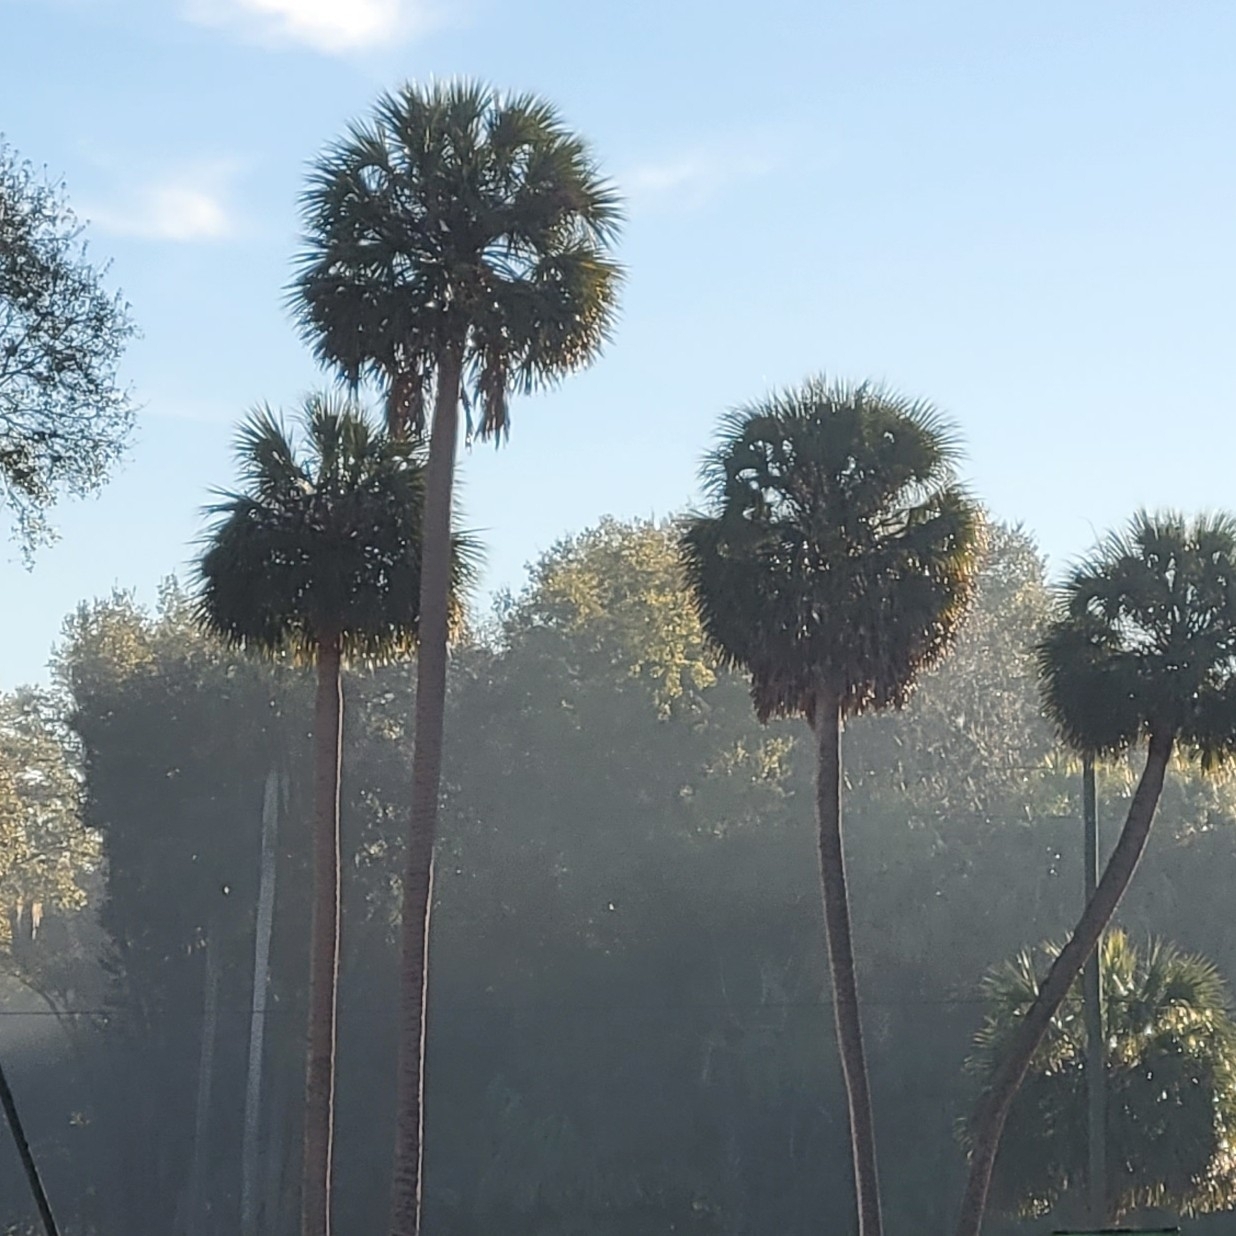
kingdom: Plantae
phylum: Tracheophyta
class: Liliopsida
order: Arecales
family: Arecaceae
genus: Sabal
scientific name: Sabal palmetto
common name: Blue palmetto
